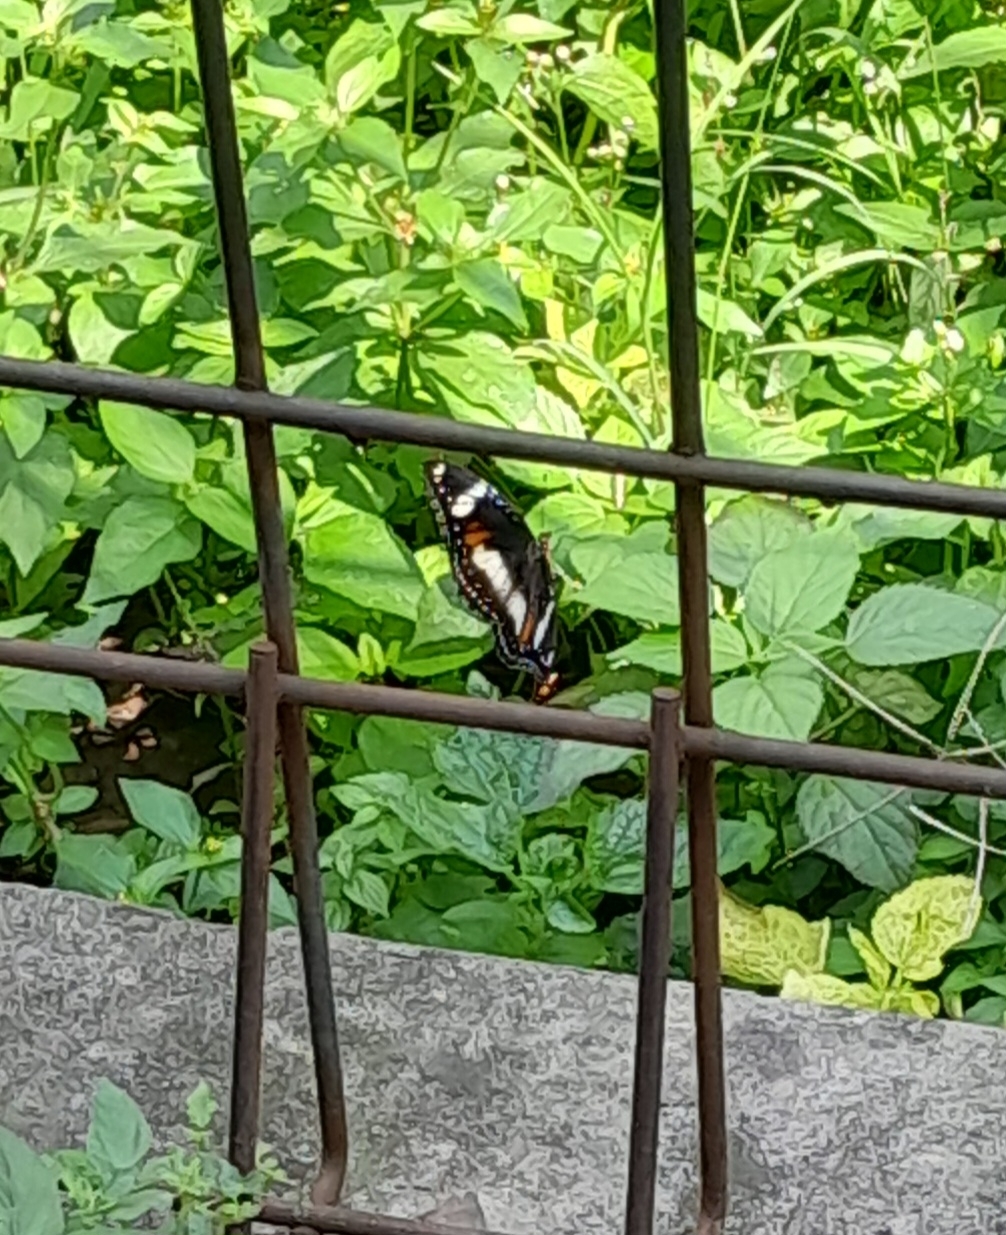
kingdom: Animalia
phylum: Arthropoda
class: Insecta
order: Lepidoptera
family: Nymphalidae
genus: Hypolimnas
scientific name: Hypolimnas bolina
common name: Great eggfly
